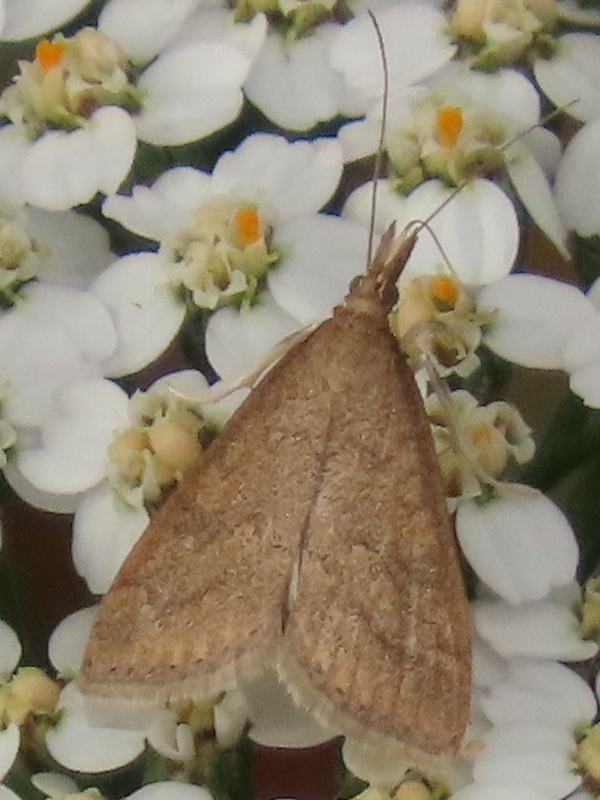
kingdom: Animalia
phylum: Arthropoda
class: Insecta
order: Lepidoptera
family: Crambidae
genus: Udea
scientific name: Udea rubigalis
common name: Celery leaftier moth
